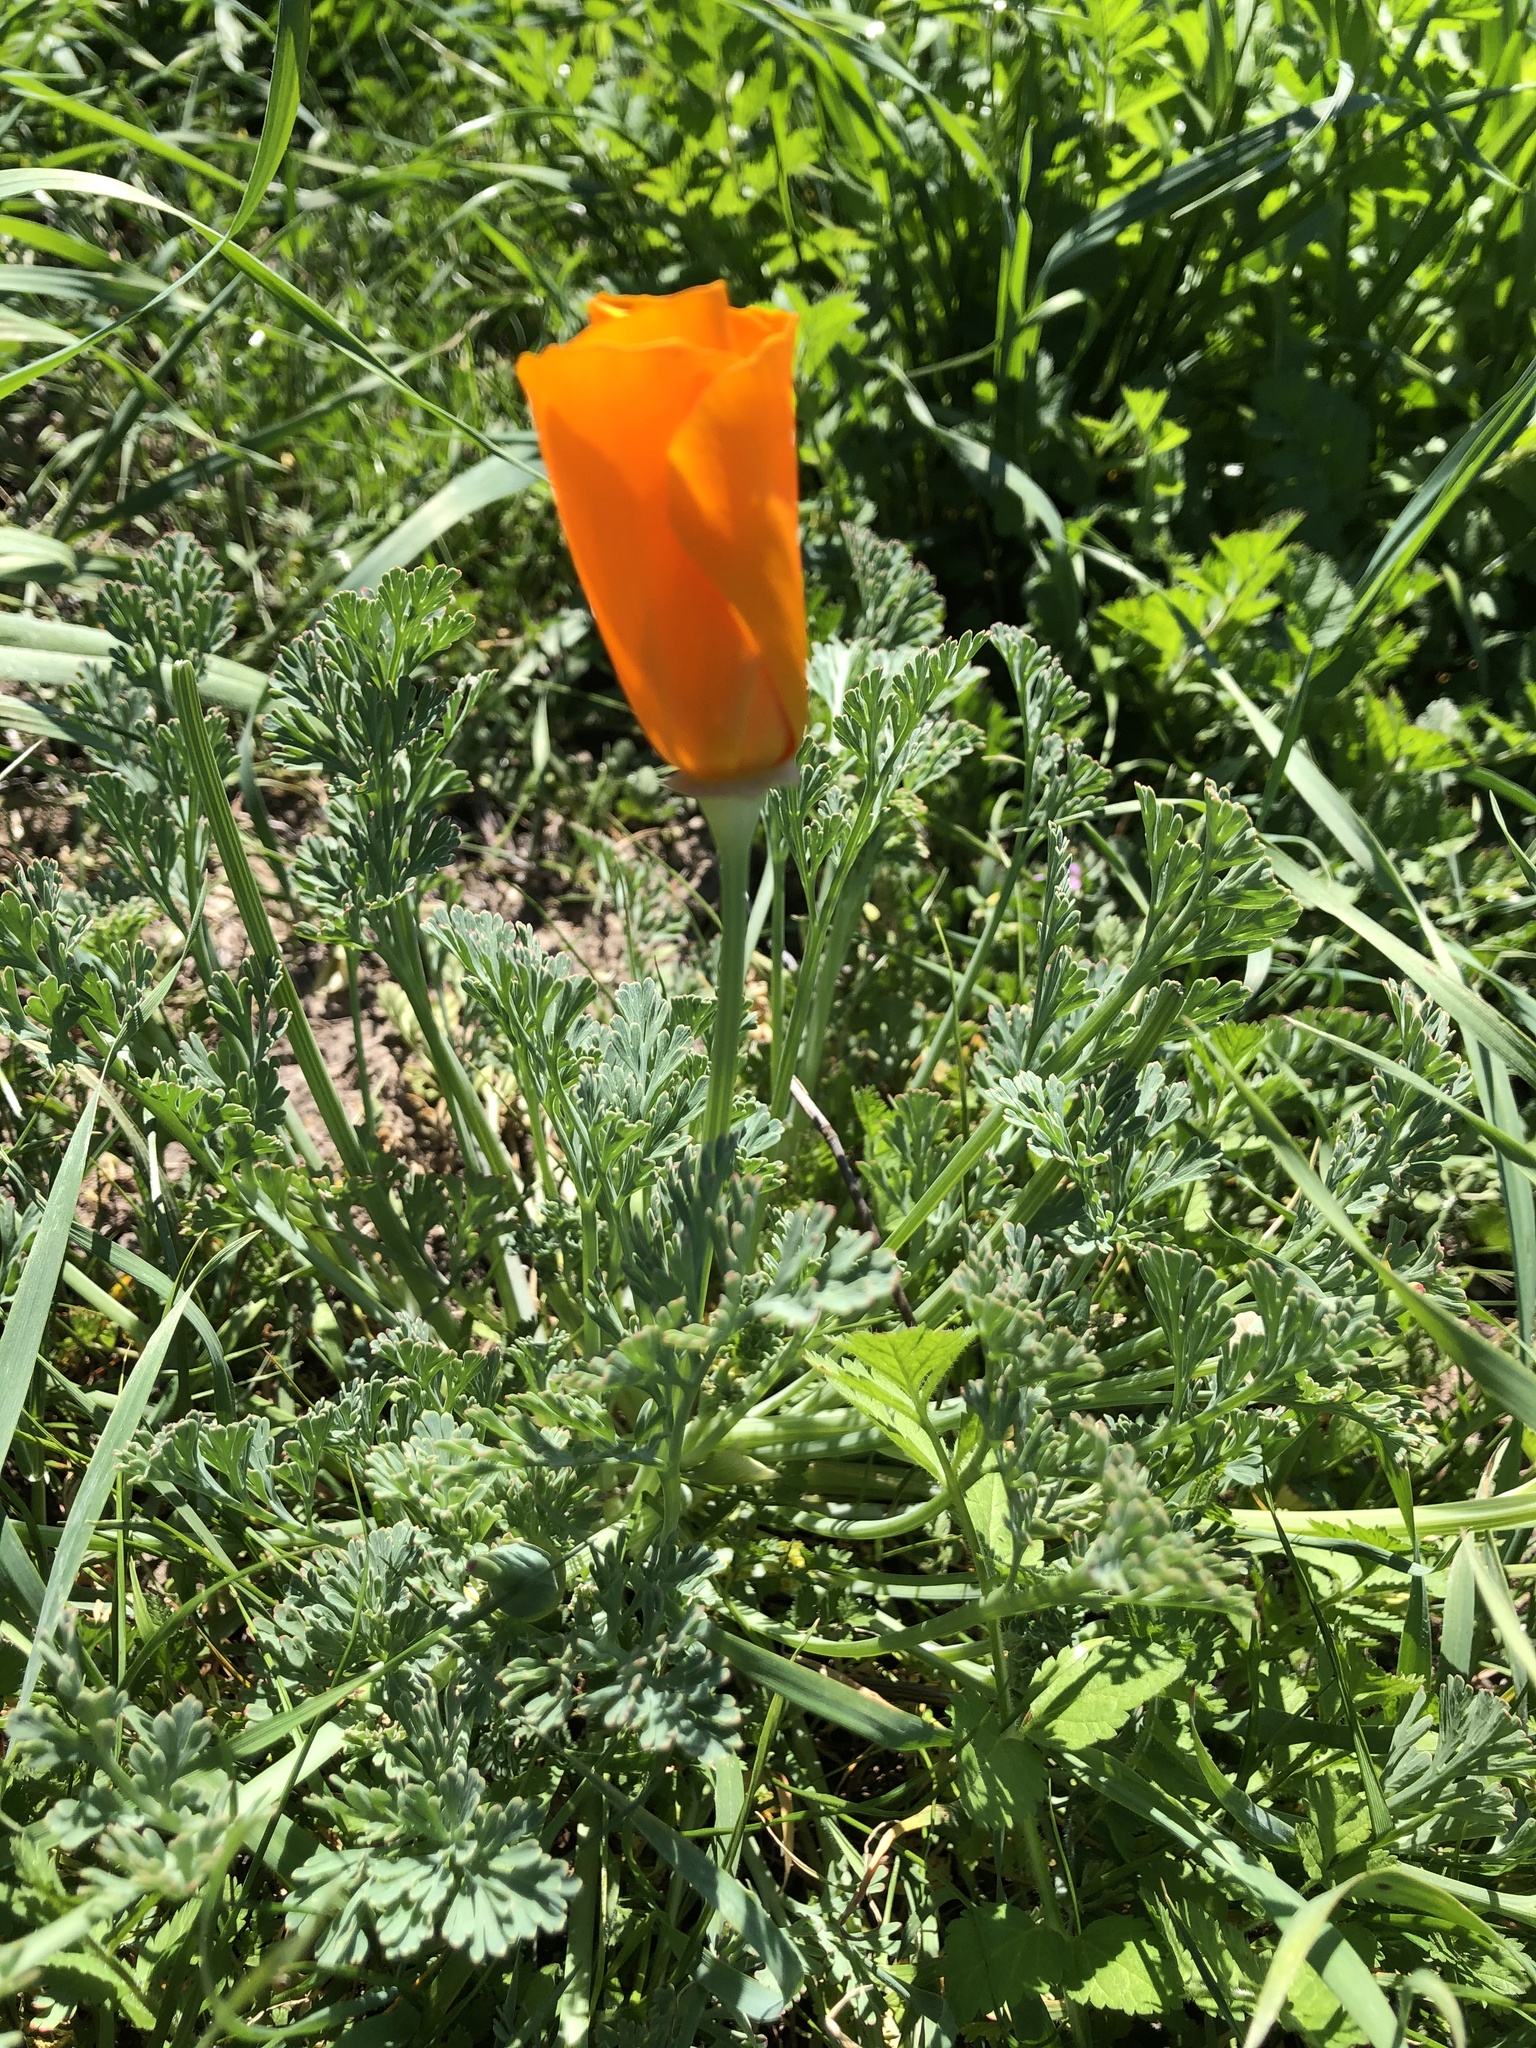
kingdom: Plantae
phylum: Tracheophyta
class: Magnoliopsida
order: Ranunculales
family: Papaveraceae
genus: Eschscholzia
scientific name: Eschscholzia californica
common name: California poppy
